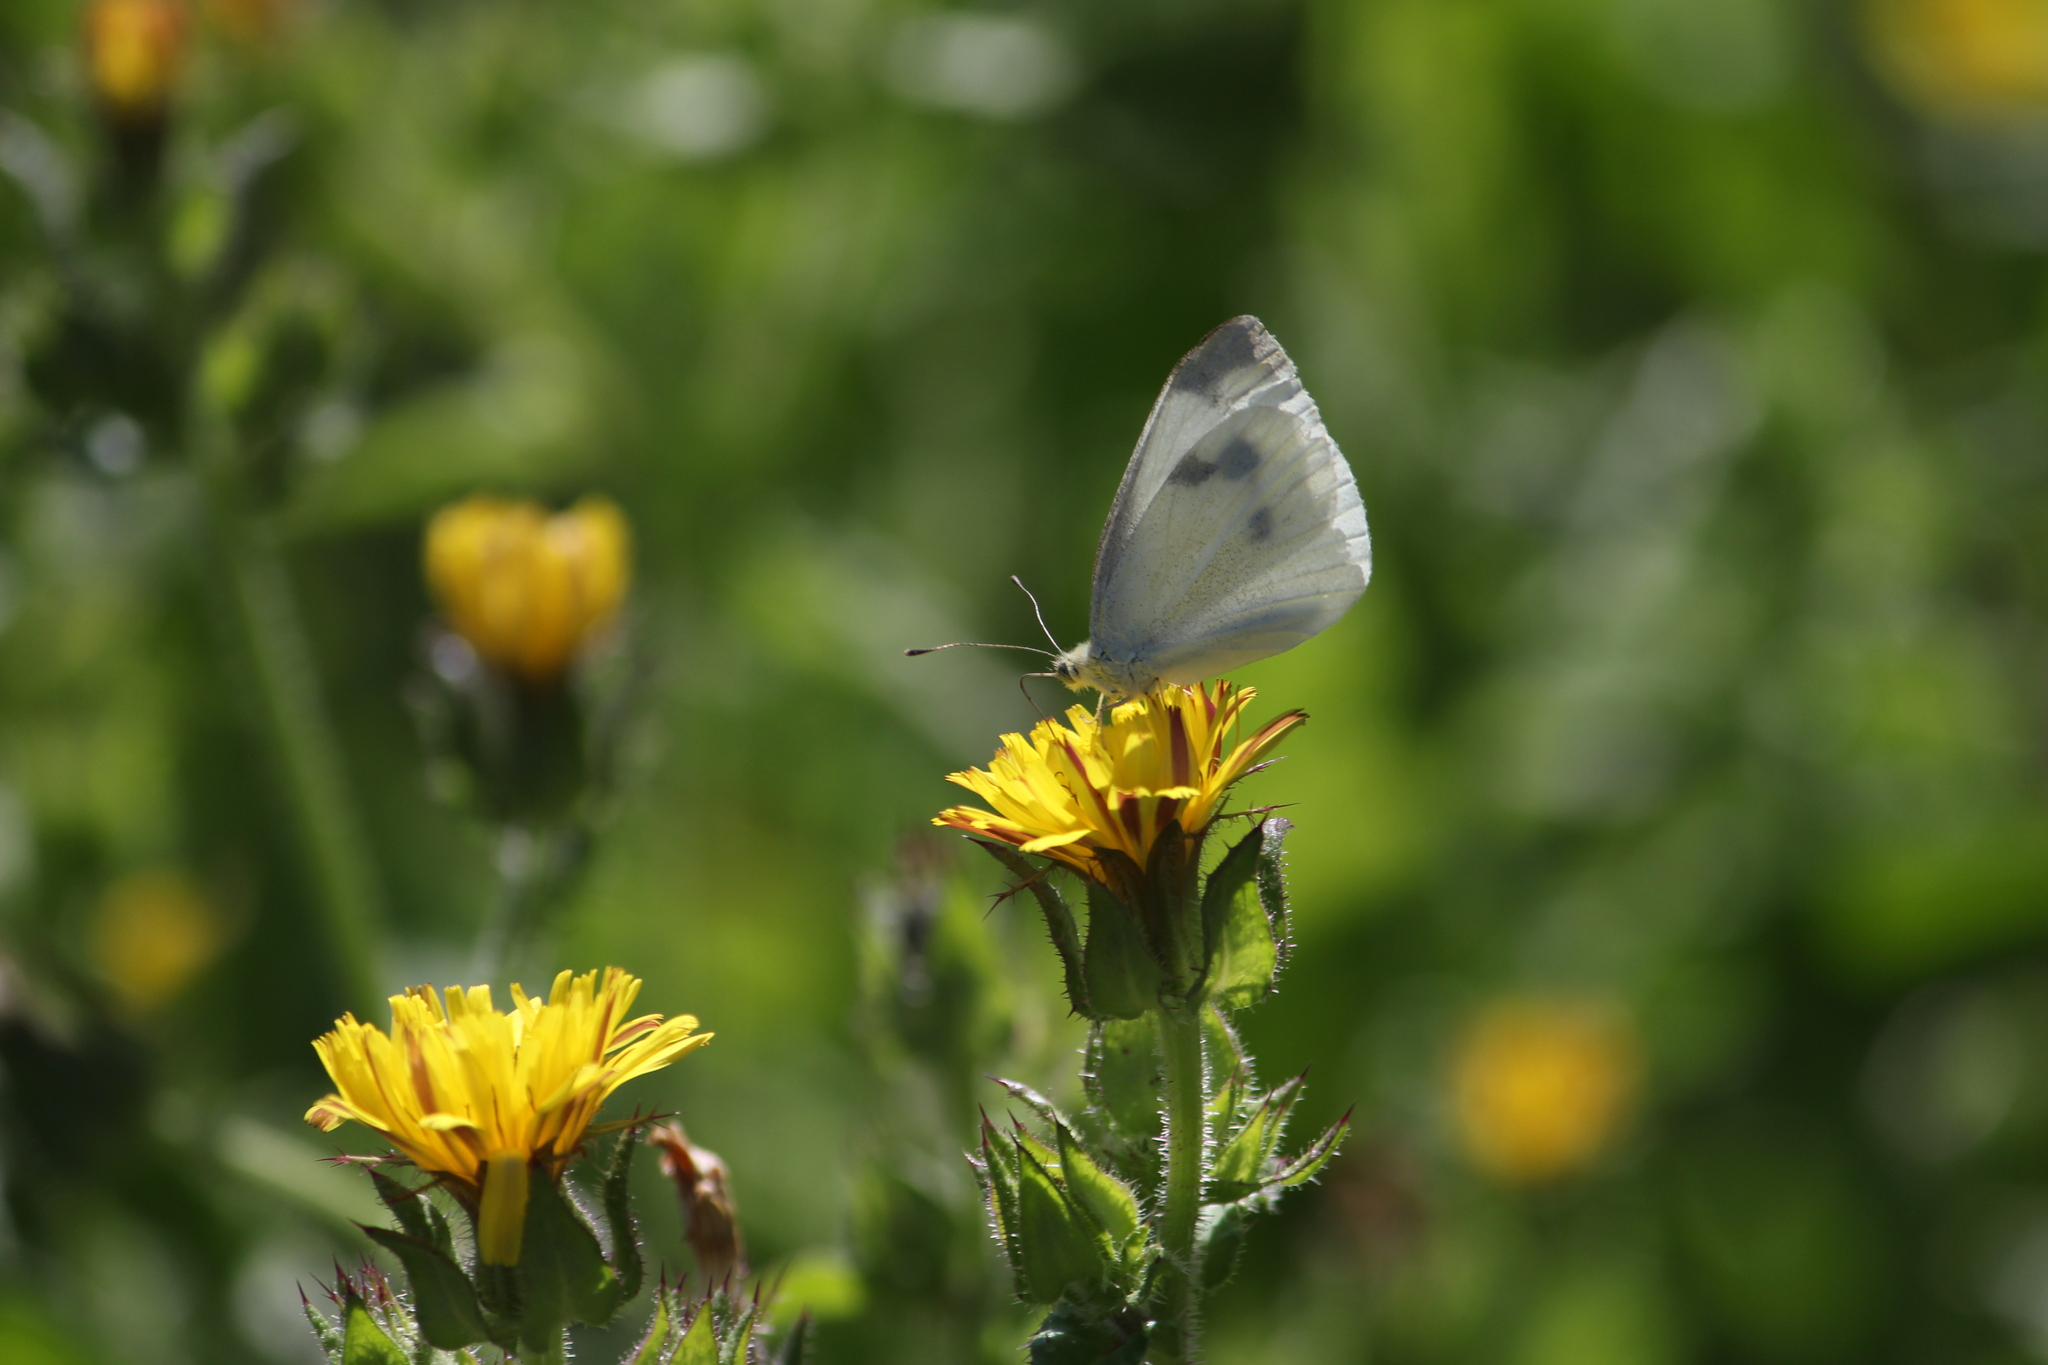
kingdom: Animalia
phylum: Arthropoda
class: Insecta
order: Lepidoptera
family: Pieridae
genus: Pieris
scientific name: Pieris rapae
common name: Small white
